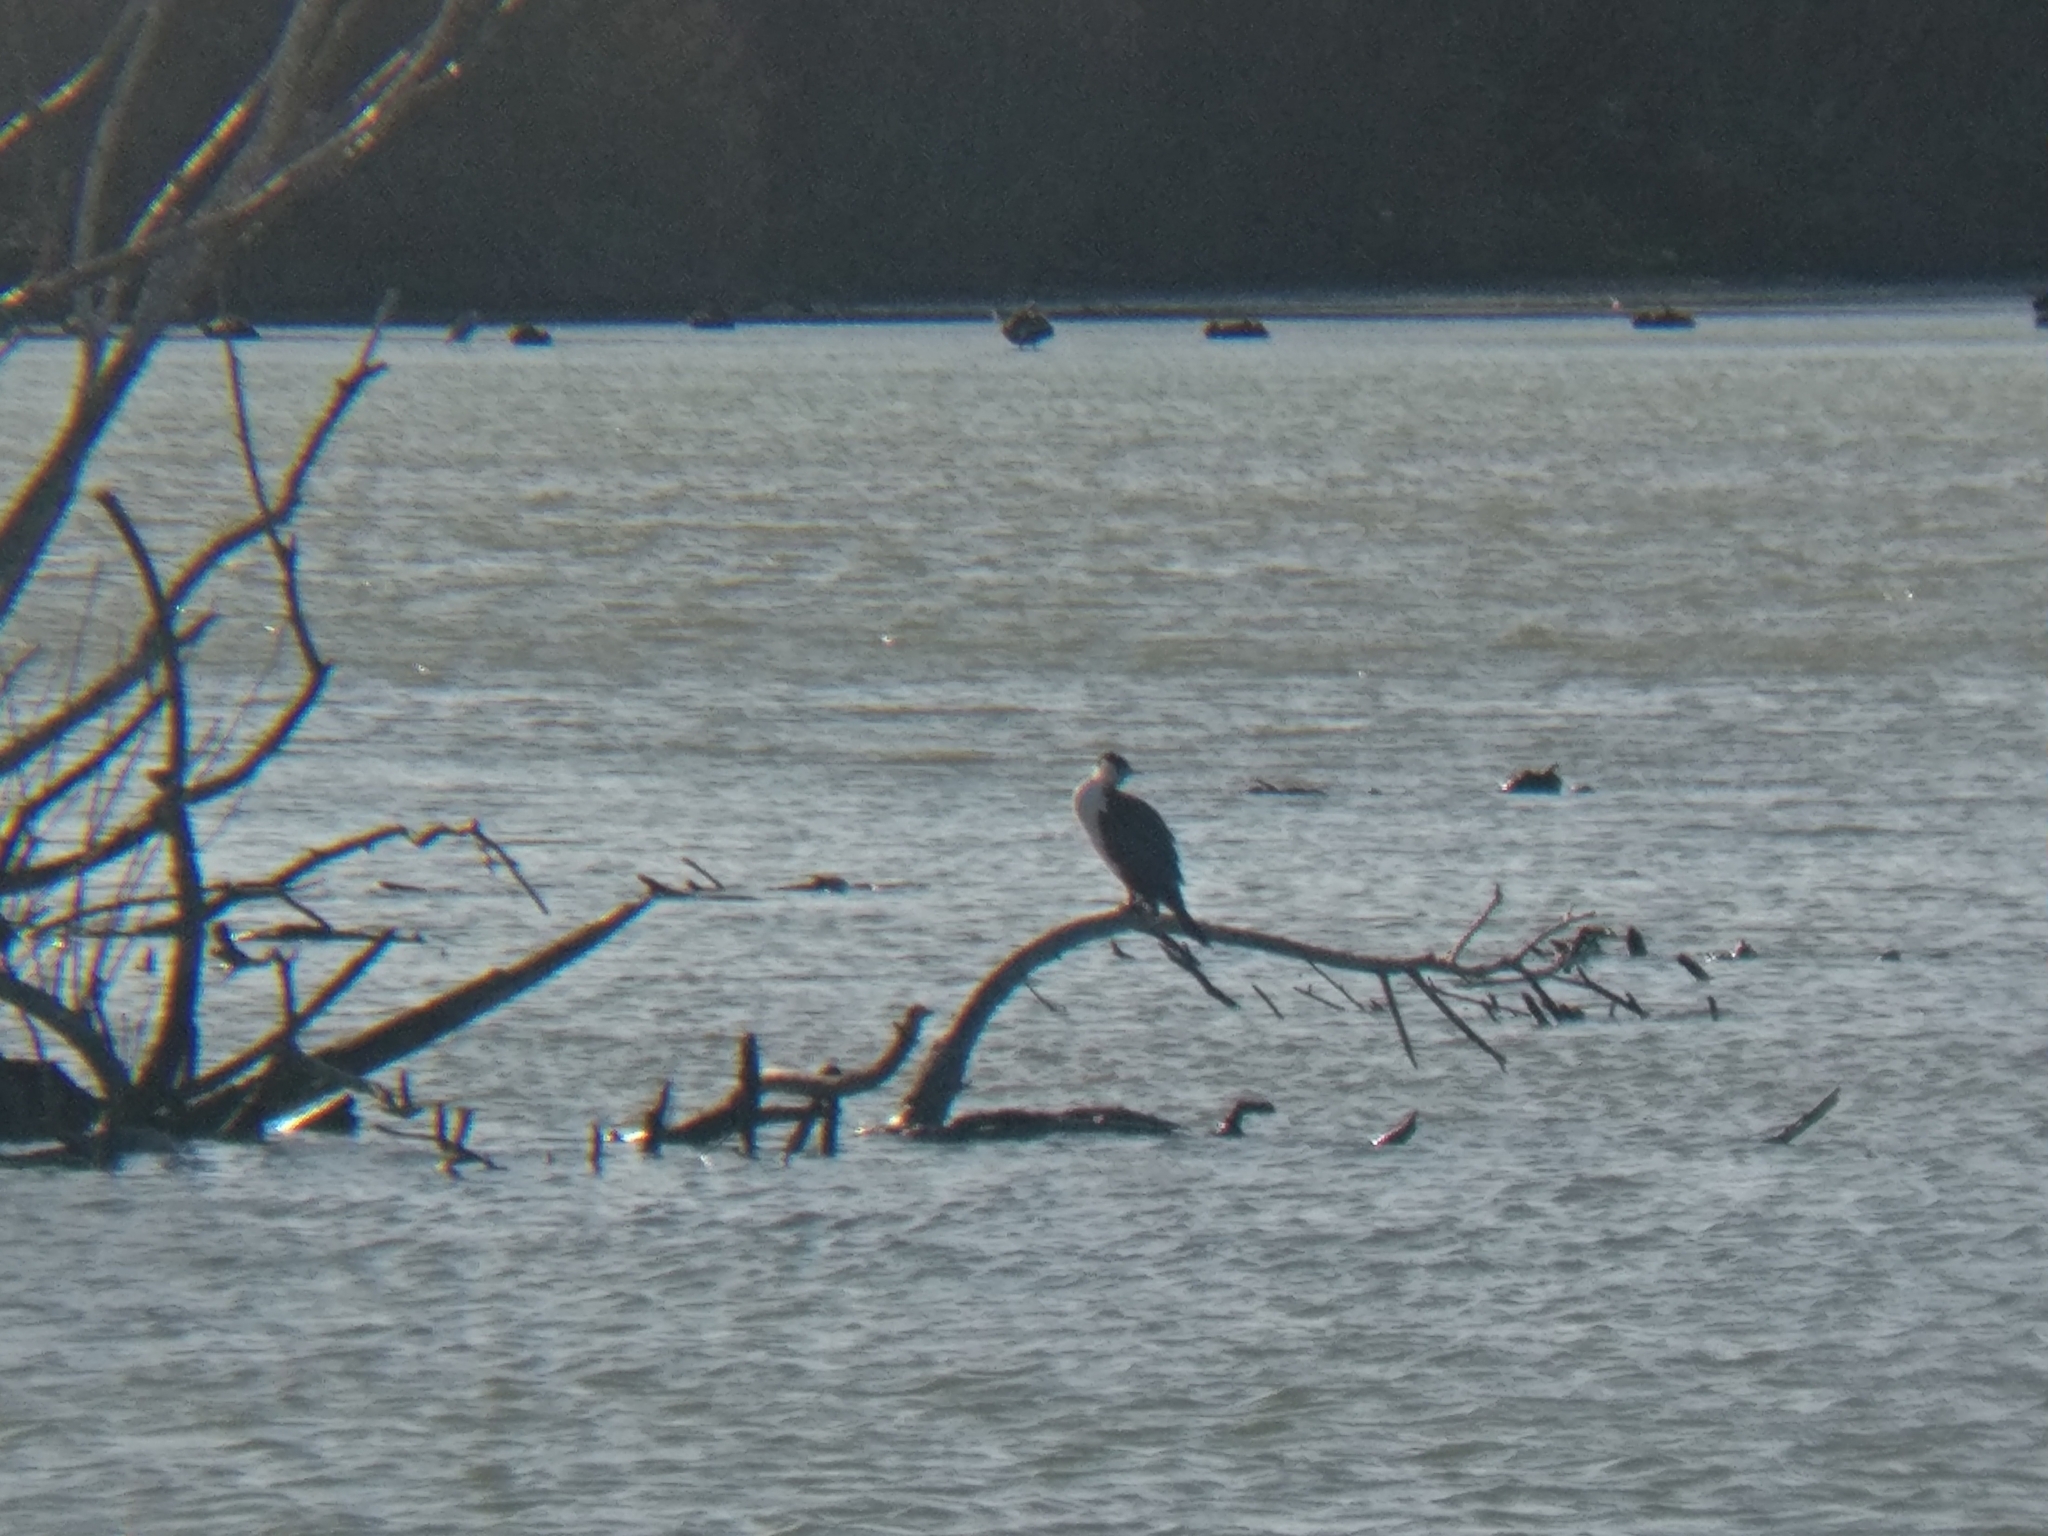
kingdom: Animalia
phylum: Chordata
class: Aves
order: Suliformes
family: Phalacrocoracidae
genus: Phalacrocorax
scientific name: Phalacrocorax varius
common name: Pied cormorant
